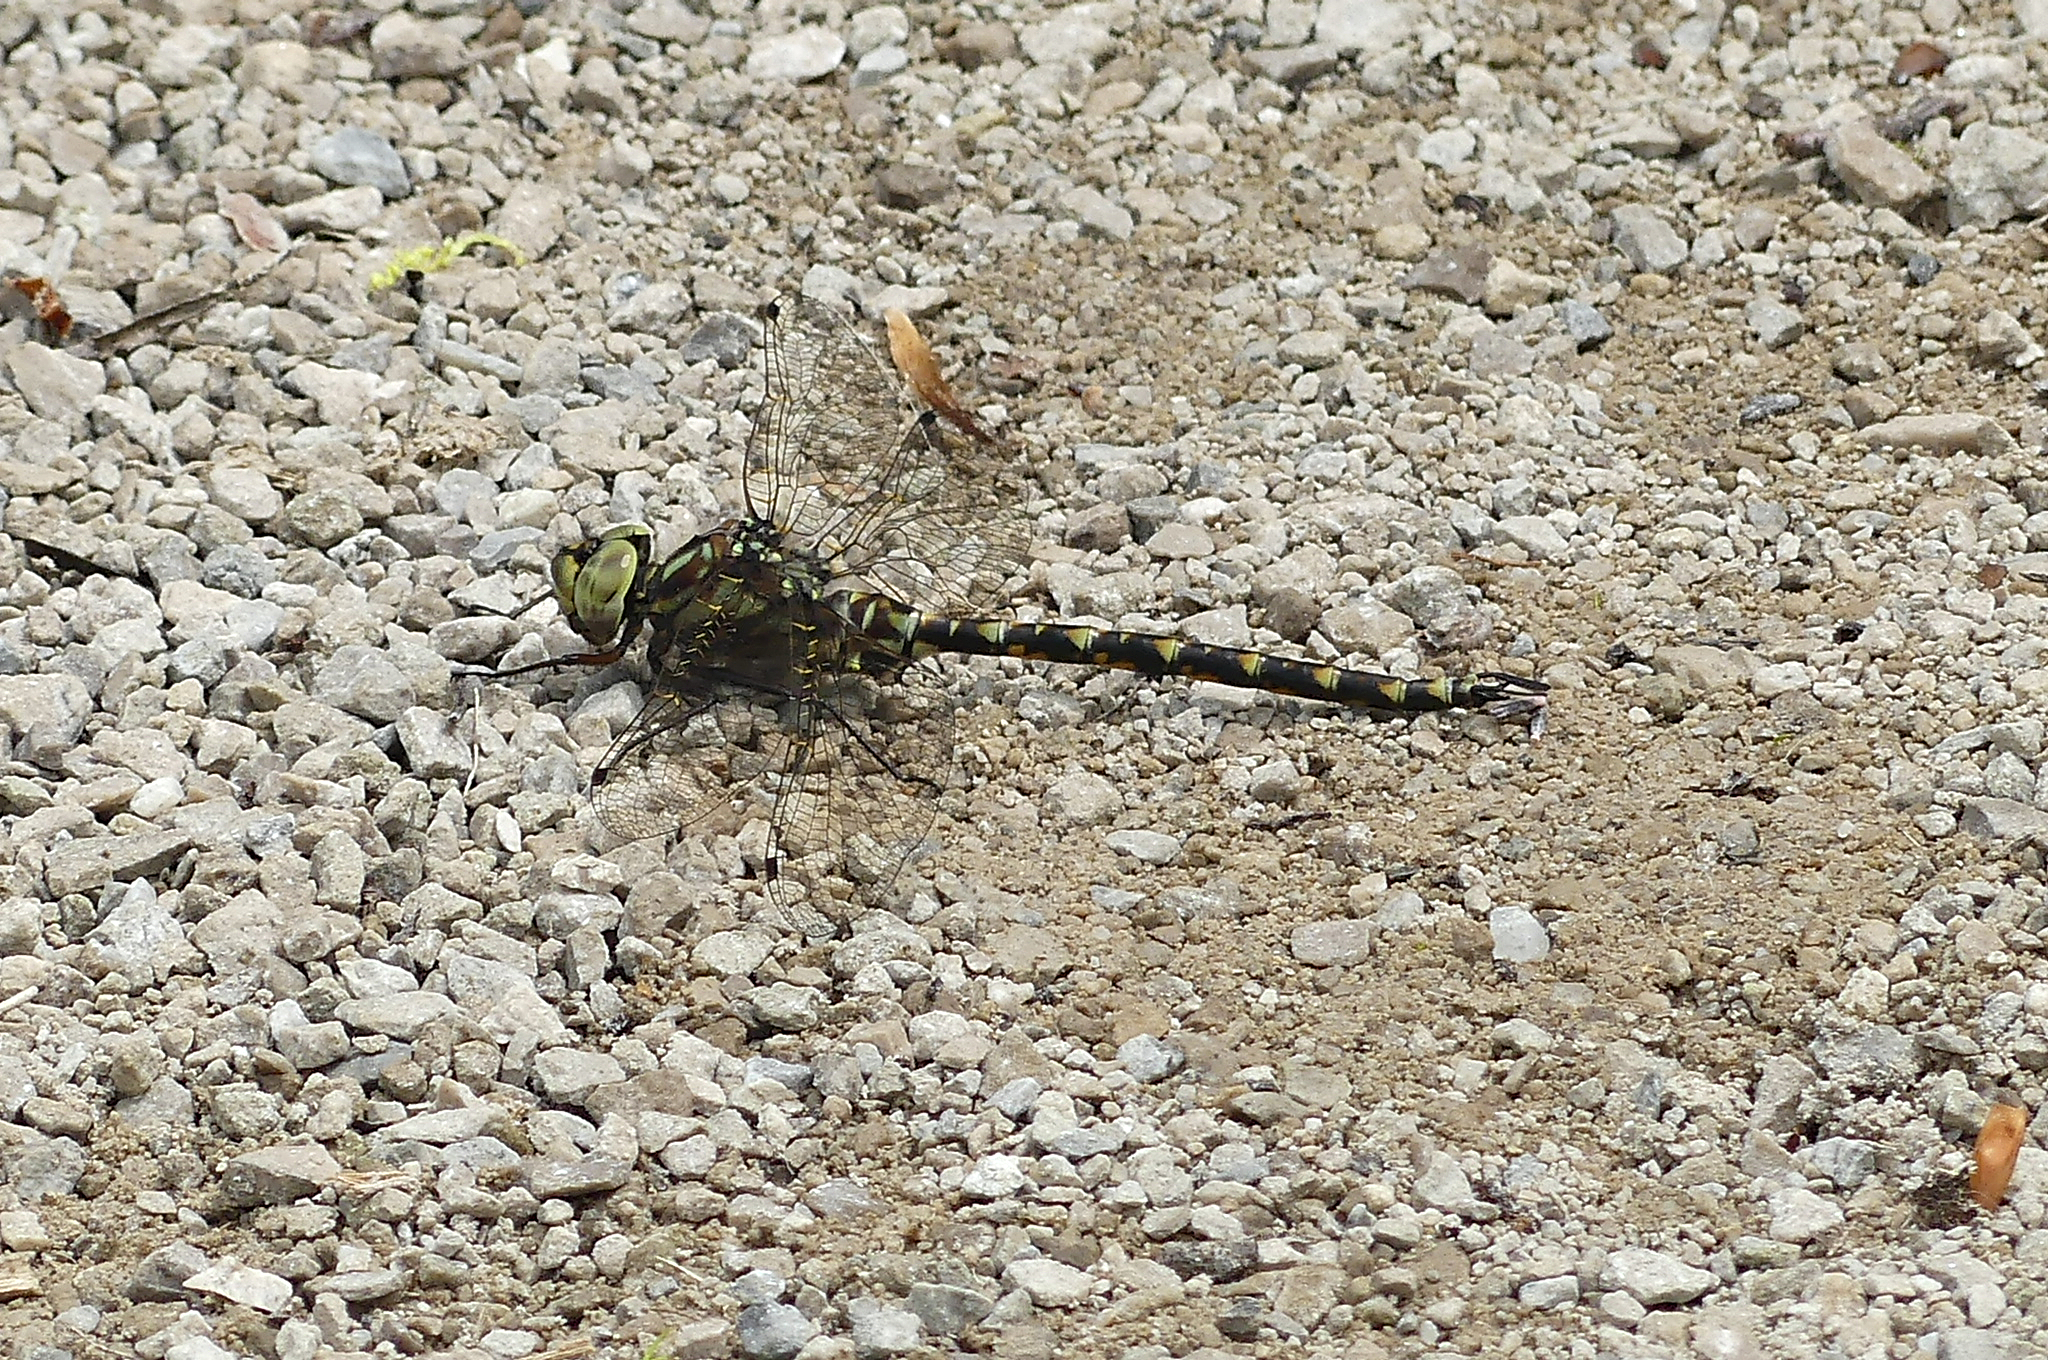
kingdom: Animalia
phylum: Arthropoda
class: Insecta
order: Odonata
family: Aeshnidae
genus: Gomphaeschna
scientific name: Gomphaeschna furcillata
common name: Harlequin darner
